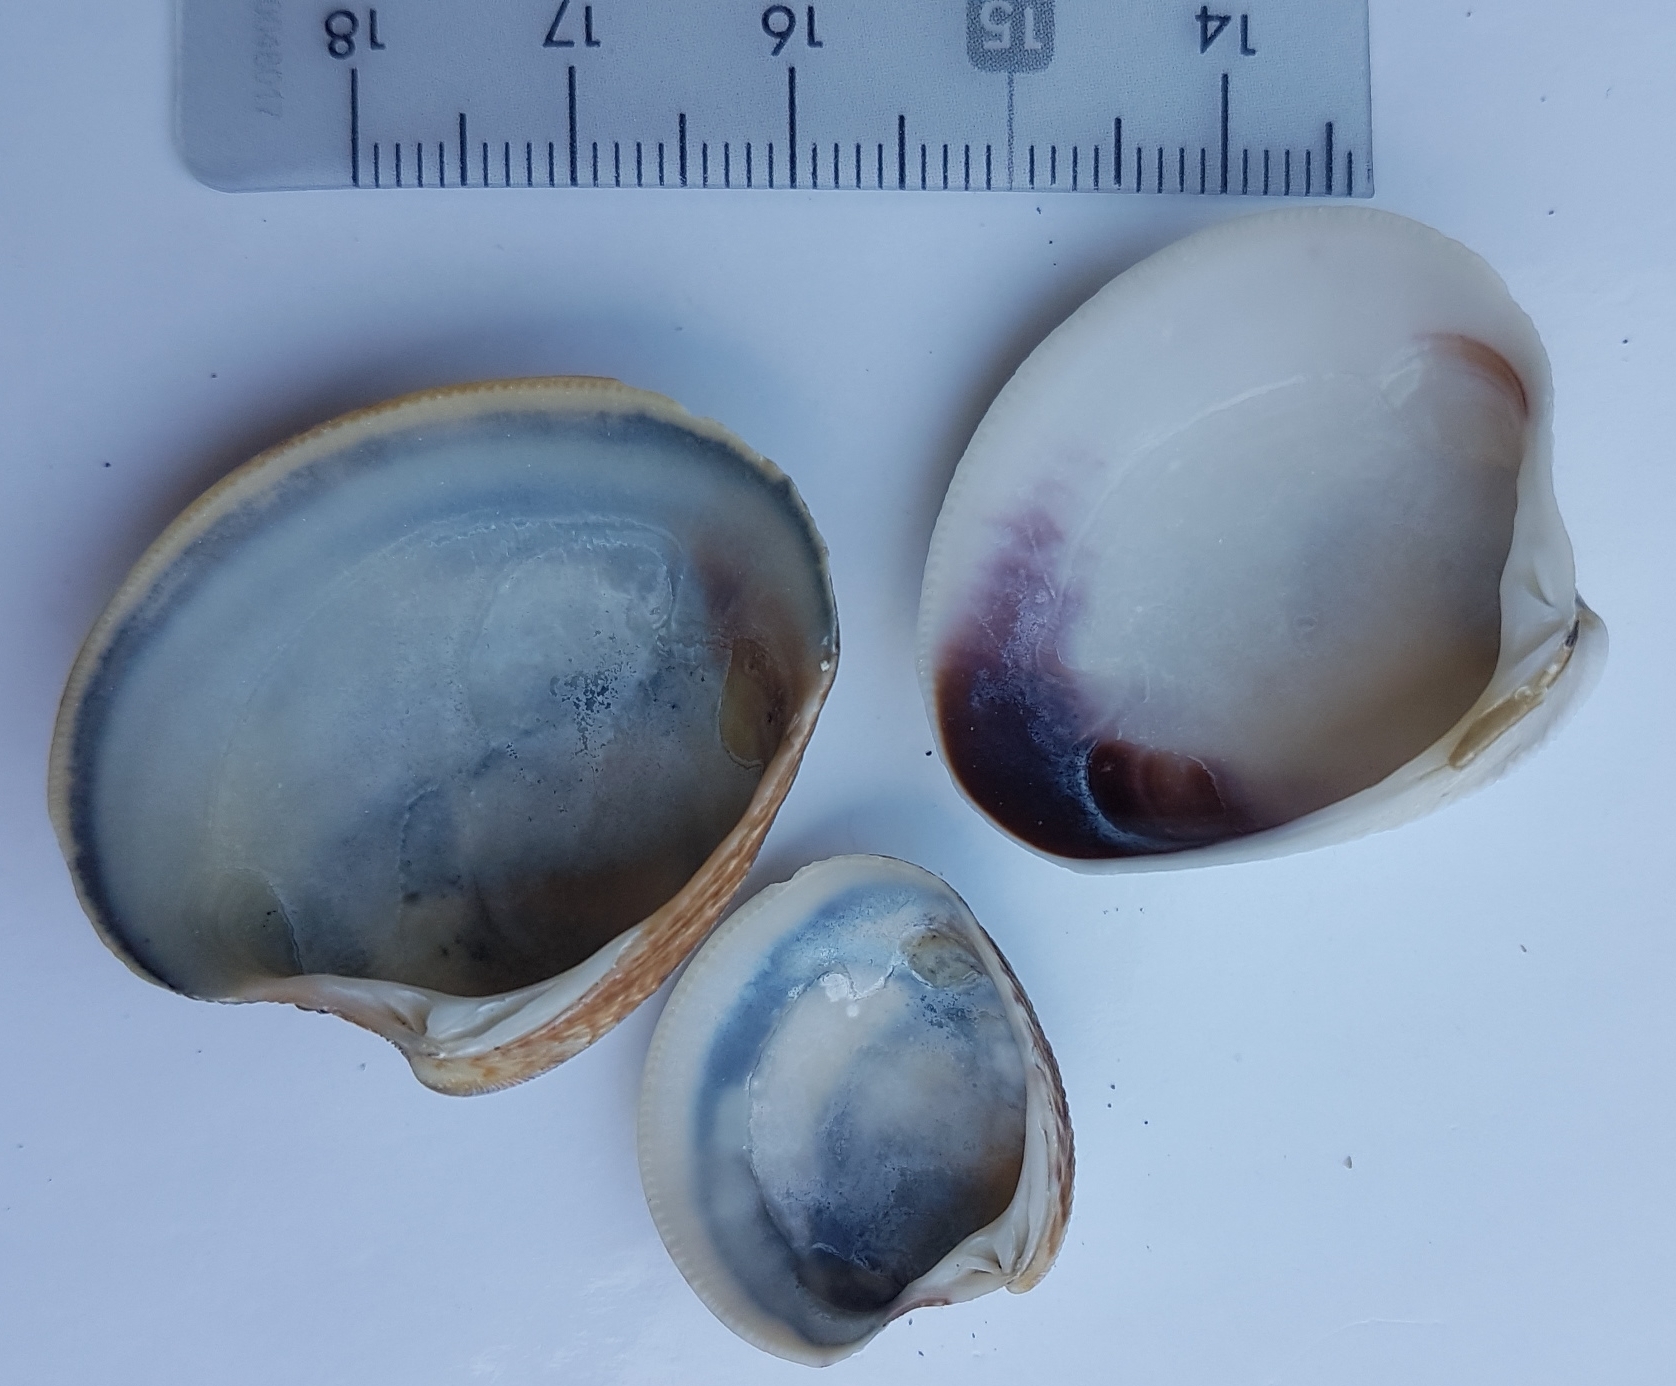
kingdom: Animalia
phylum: Mollusca
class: Bivalvia
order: Venerida
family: Veneridae
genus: Chamelea
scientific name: Chamelea gallina
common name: Chicken venus
